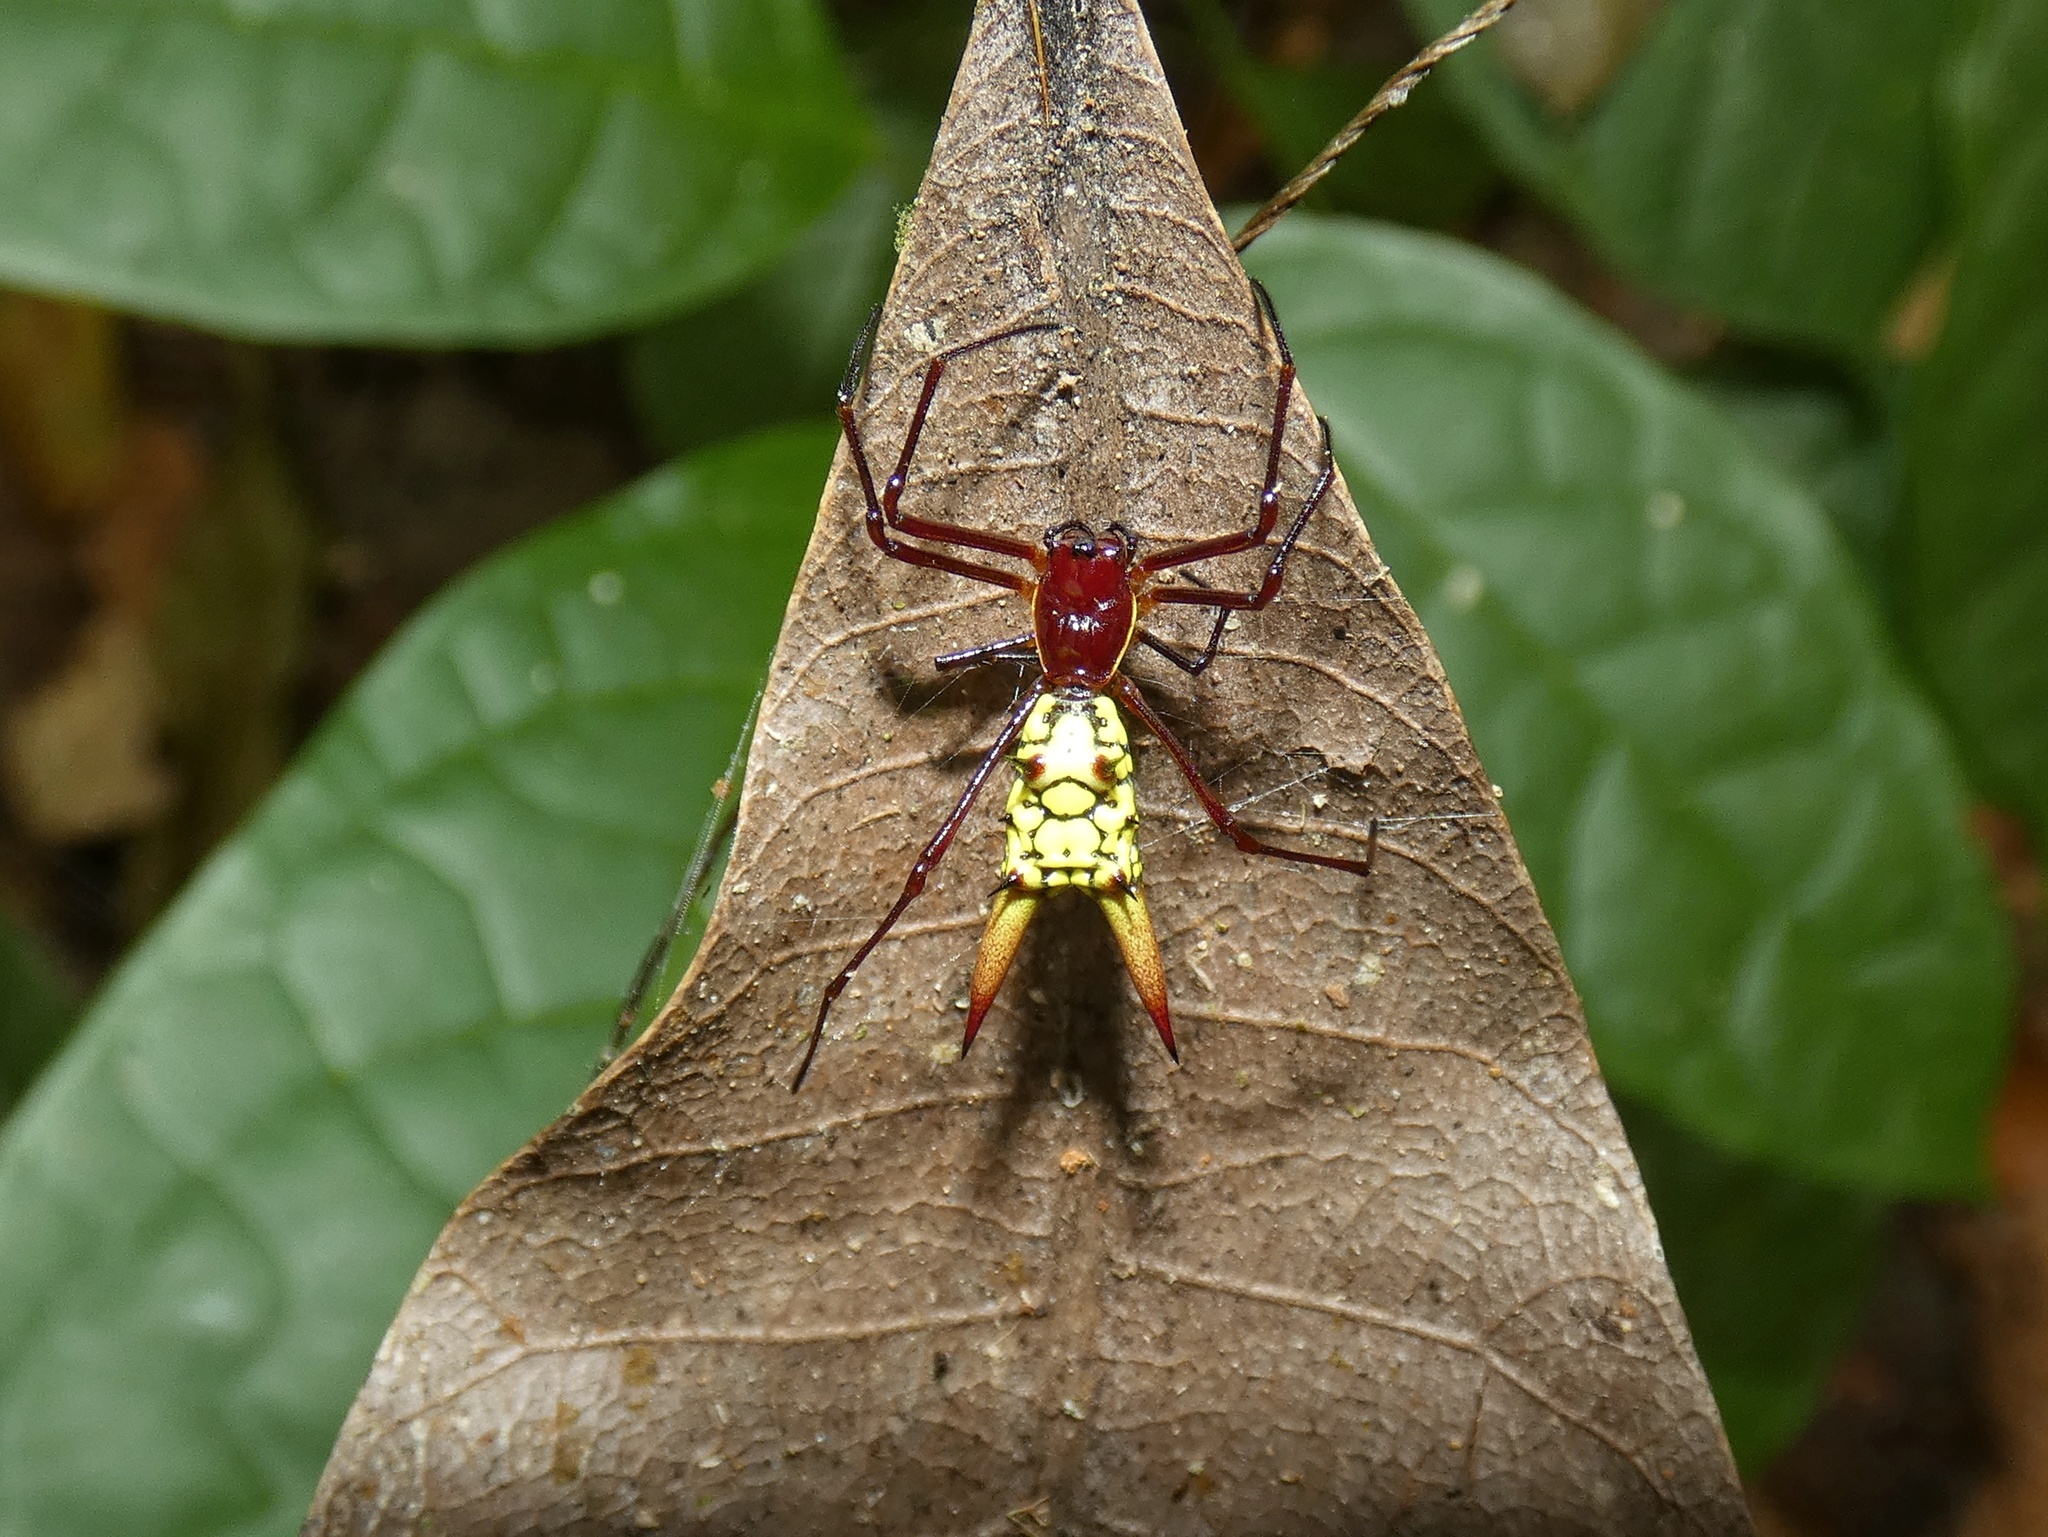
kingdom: Animalia
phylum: Arthropoda
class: Arachnida
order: Araneae
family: Araneidae
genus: Micrathena
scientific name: Micrathena donaldi
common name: Orb weavers
